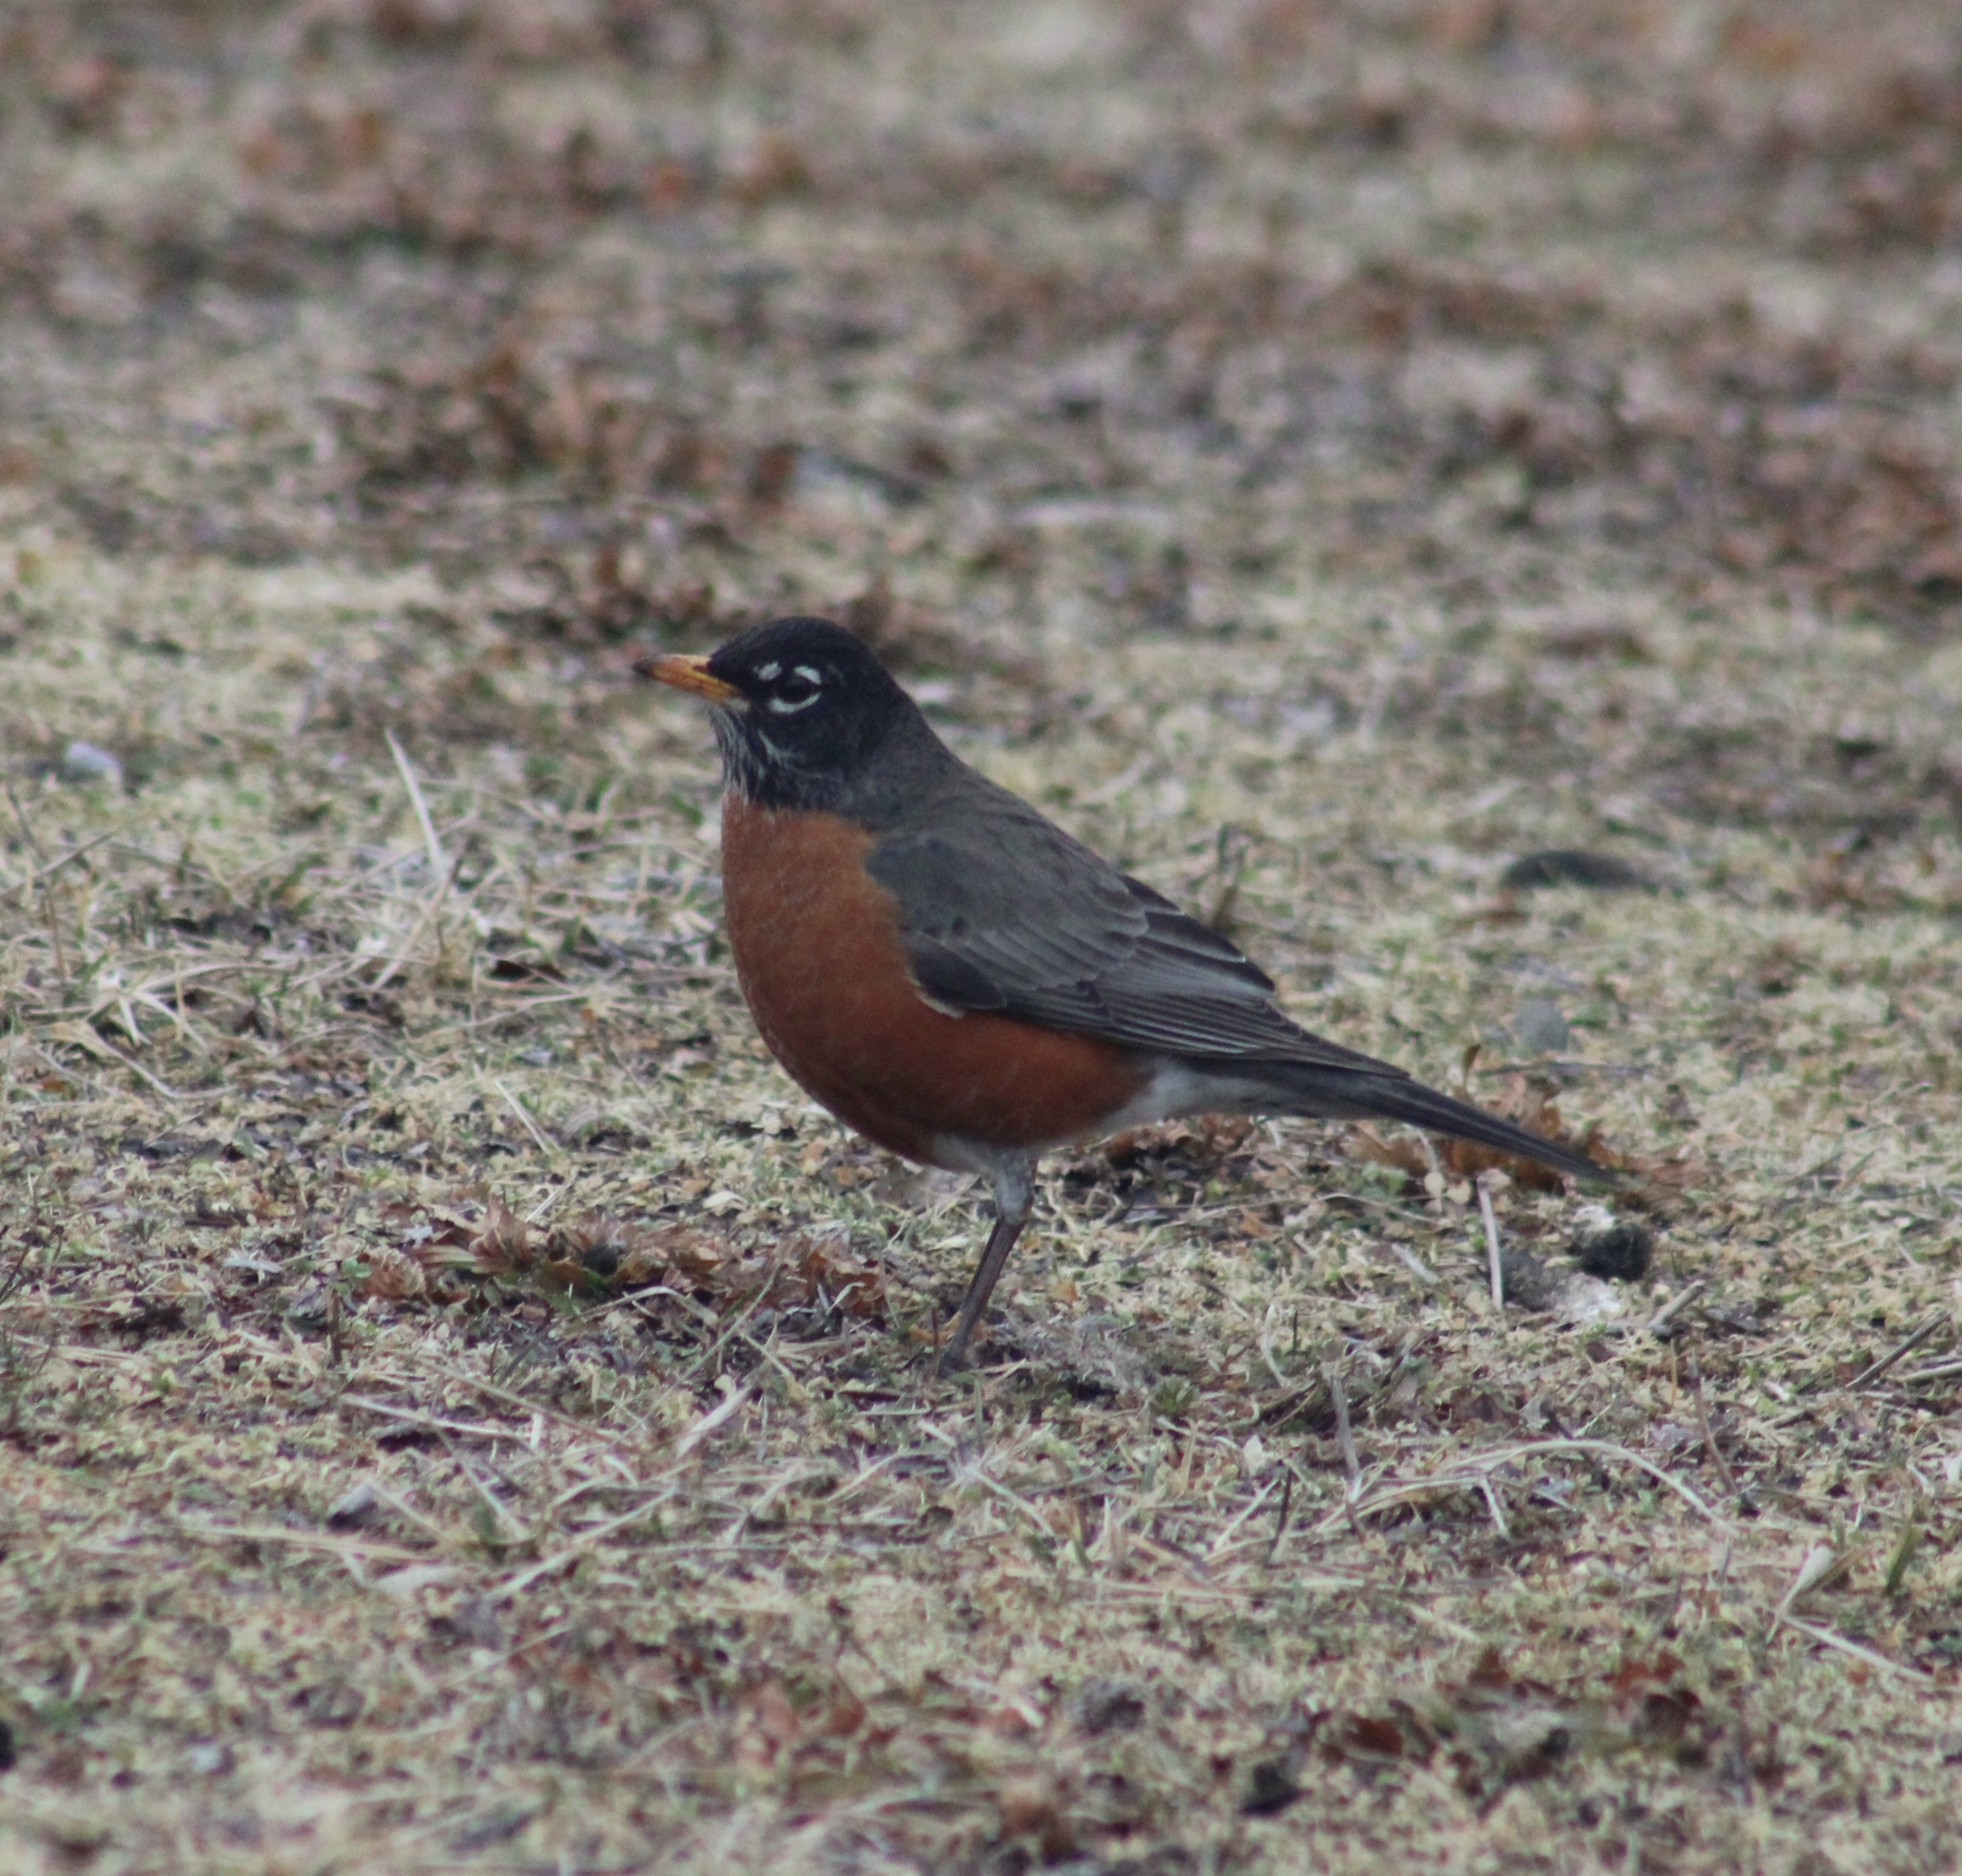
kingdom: Animalia
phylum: Chordata
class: Aves
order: Passeriformes
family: Turdidae
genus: Turdus
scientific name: Turdus migratorius
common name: American robin
